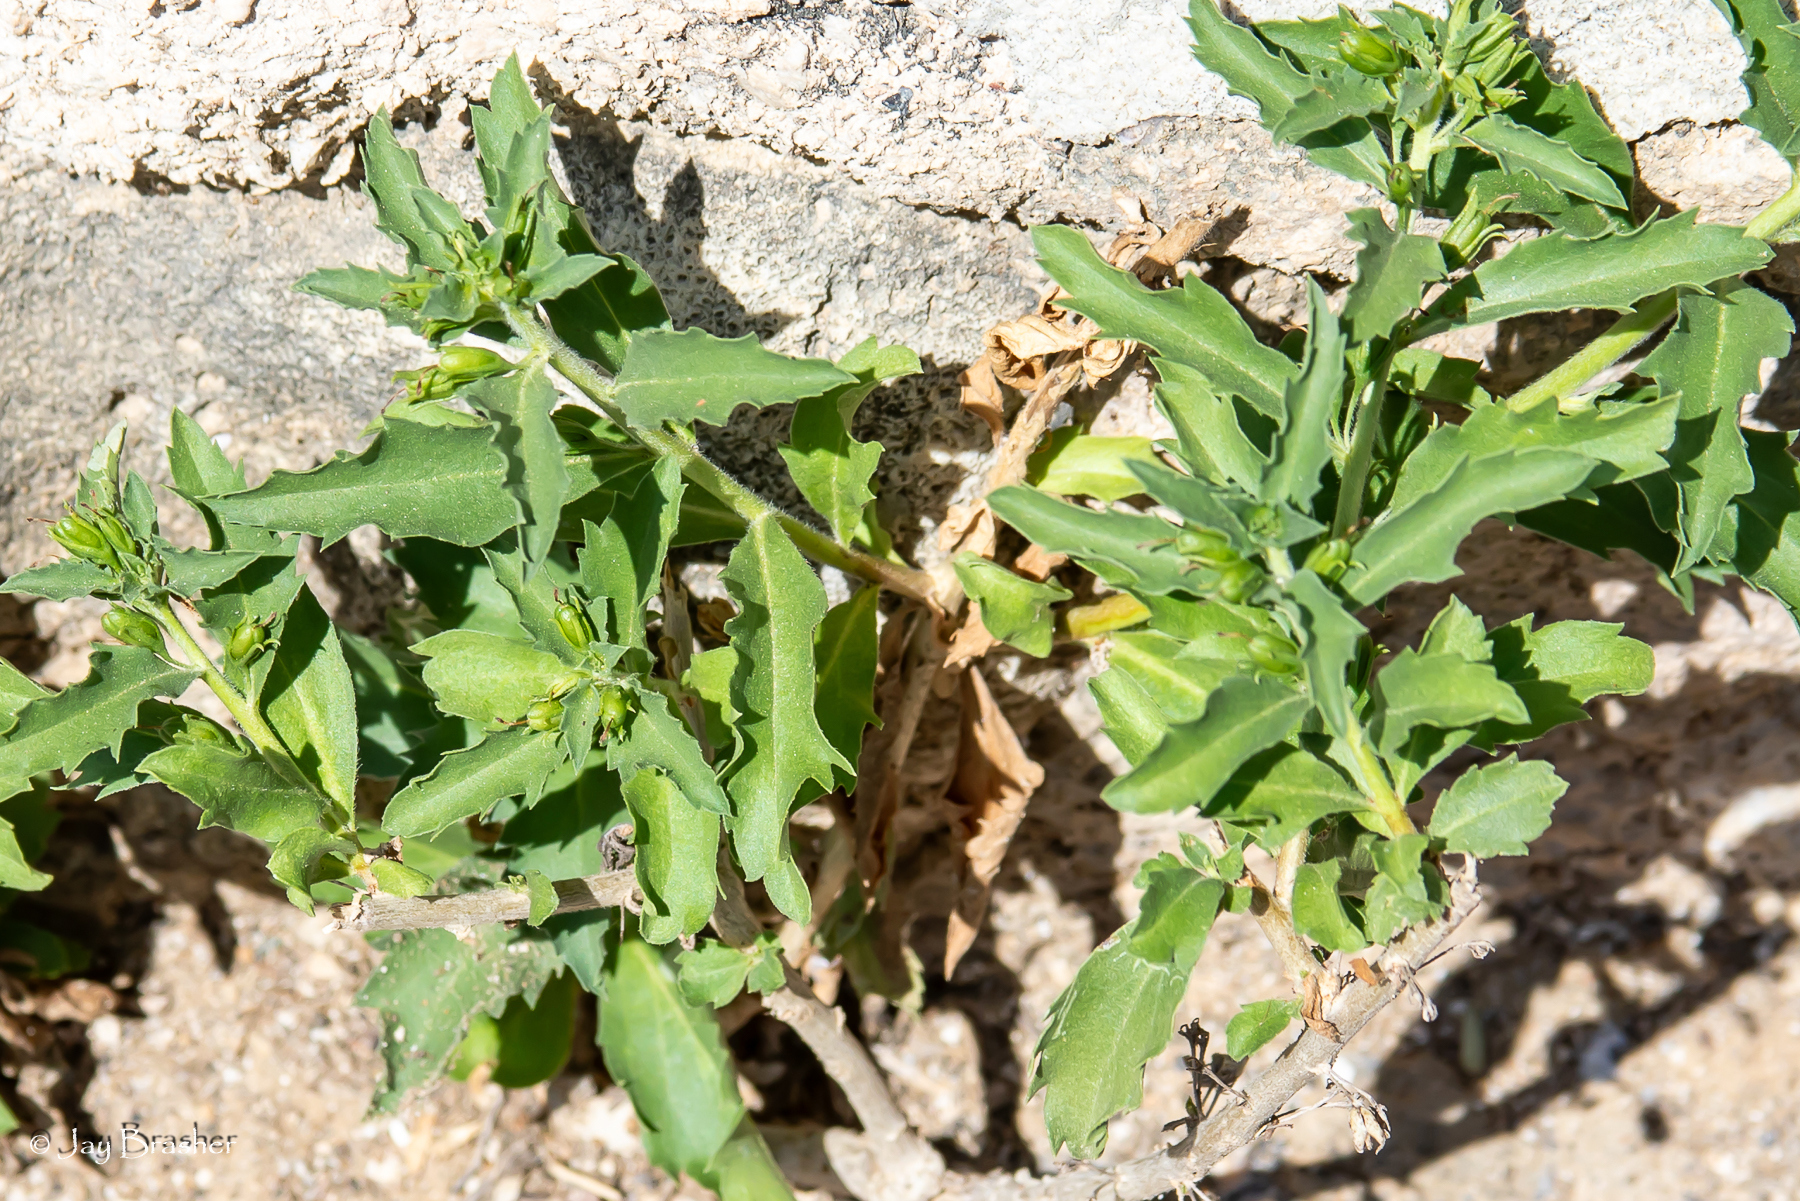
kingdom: Plantae
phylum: Tracheophyta
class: Magnoliopsida
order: Lamiales
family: Scrophulariaceae
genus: Capraria
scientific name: Capraria biflora
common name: Goatweed
